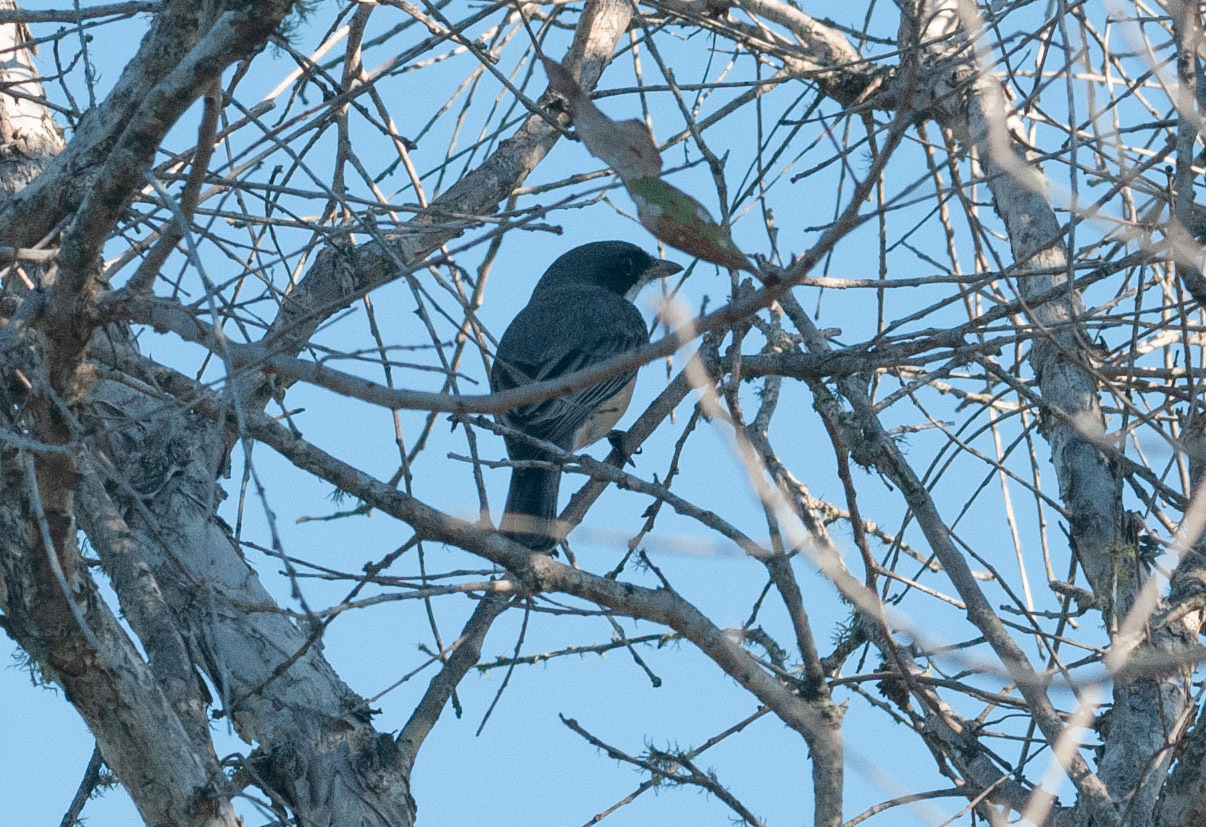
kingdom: Animalia
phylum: Chordata
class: Aves
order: Passeriformes
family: Pachycephalidae
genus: Pachycephala
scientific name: Pachycephala rufiventris
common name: Rufous whistler
